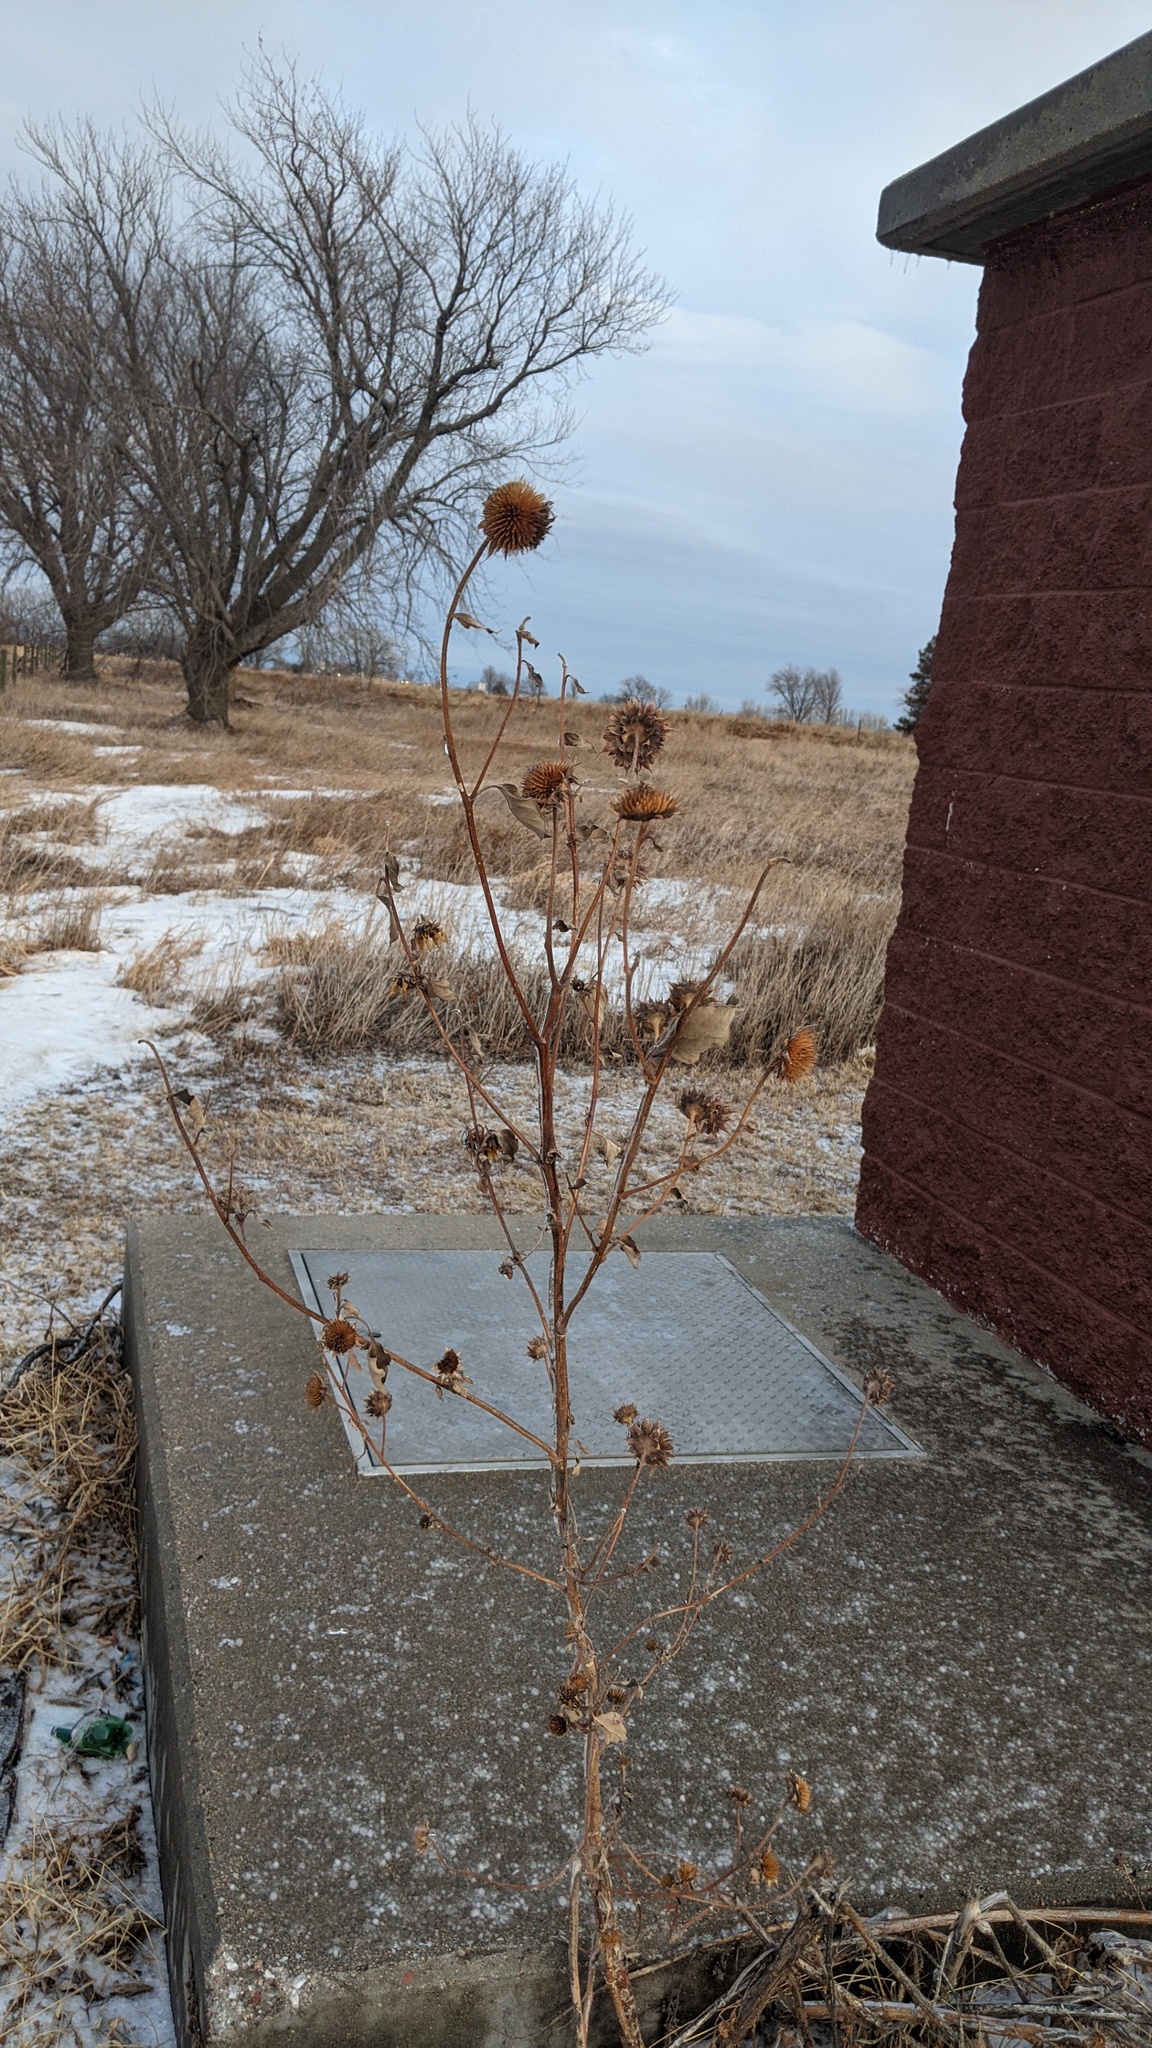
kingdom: Plantae
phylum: Tracheophyta
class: Magnoliopsida
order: Asterales
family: Asteraceae
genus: Helianthus
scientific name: Helianthus annuus
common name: Sunflower
